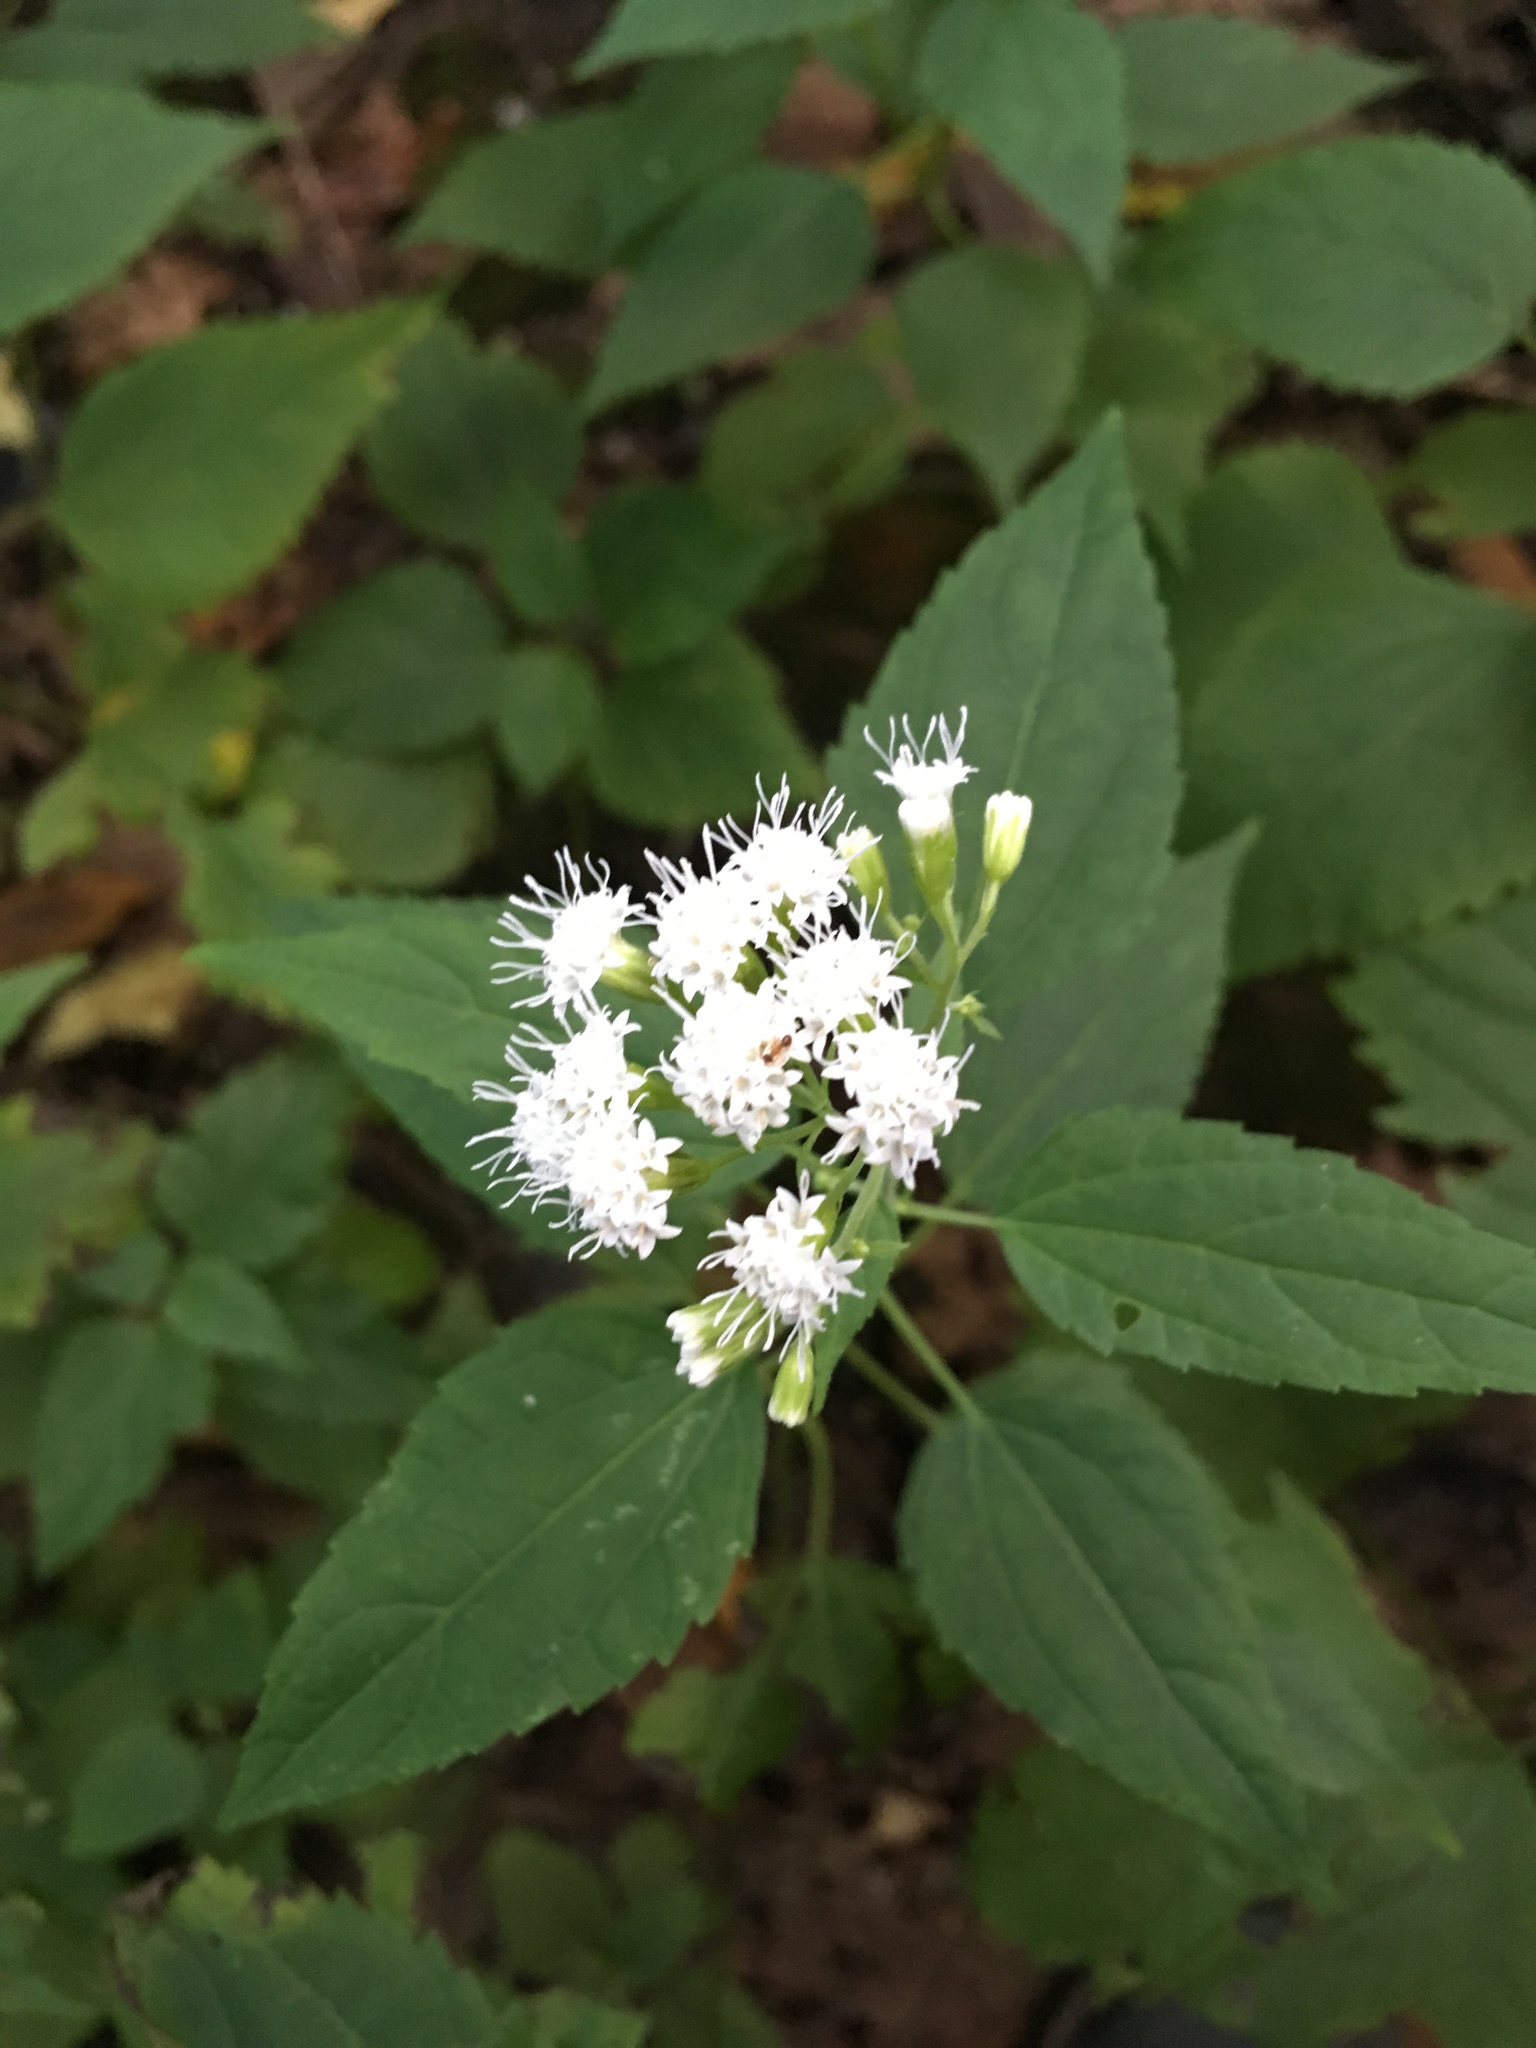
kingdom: Plantae
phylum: Tracheophyta
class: Magnoliopsida
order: Asterales
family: Asteraceae
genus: Ageratina
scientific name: Ageratina altissima
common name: White snakeroot
